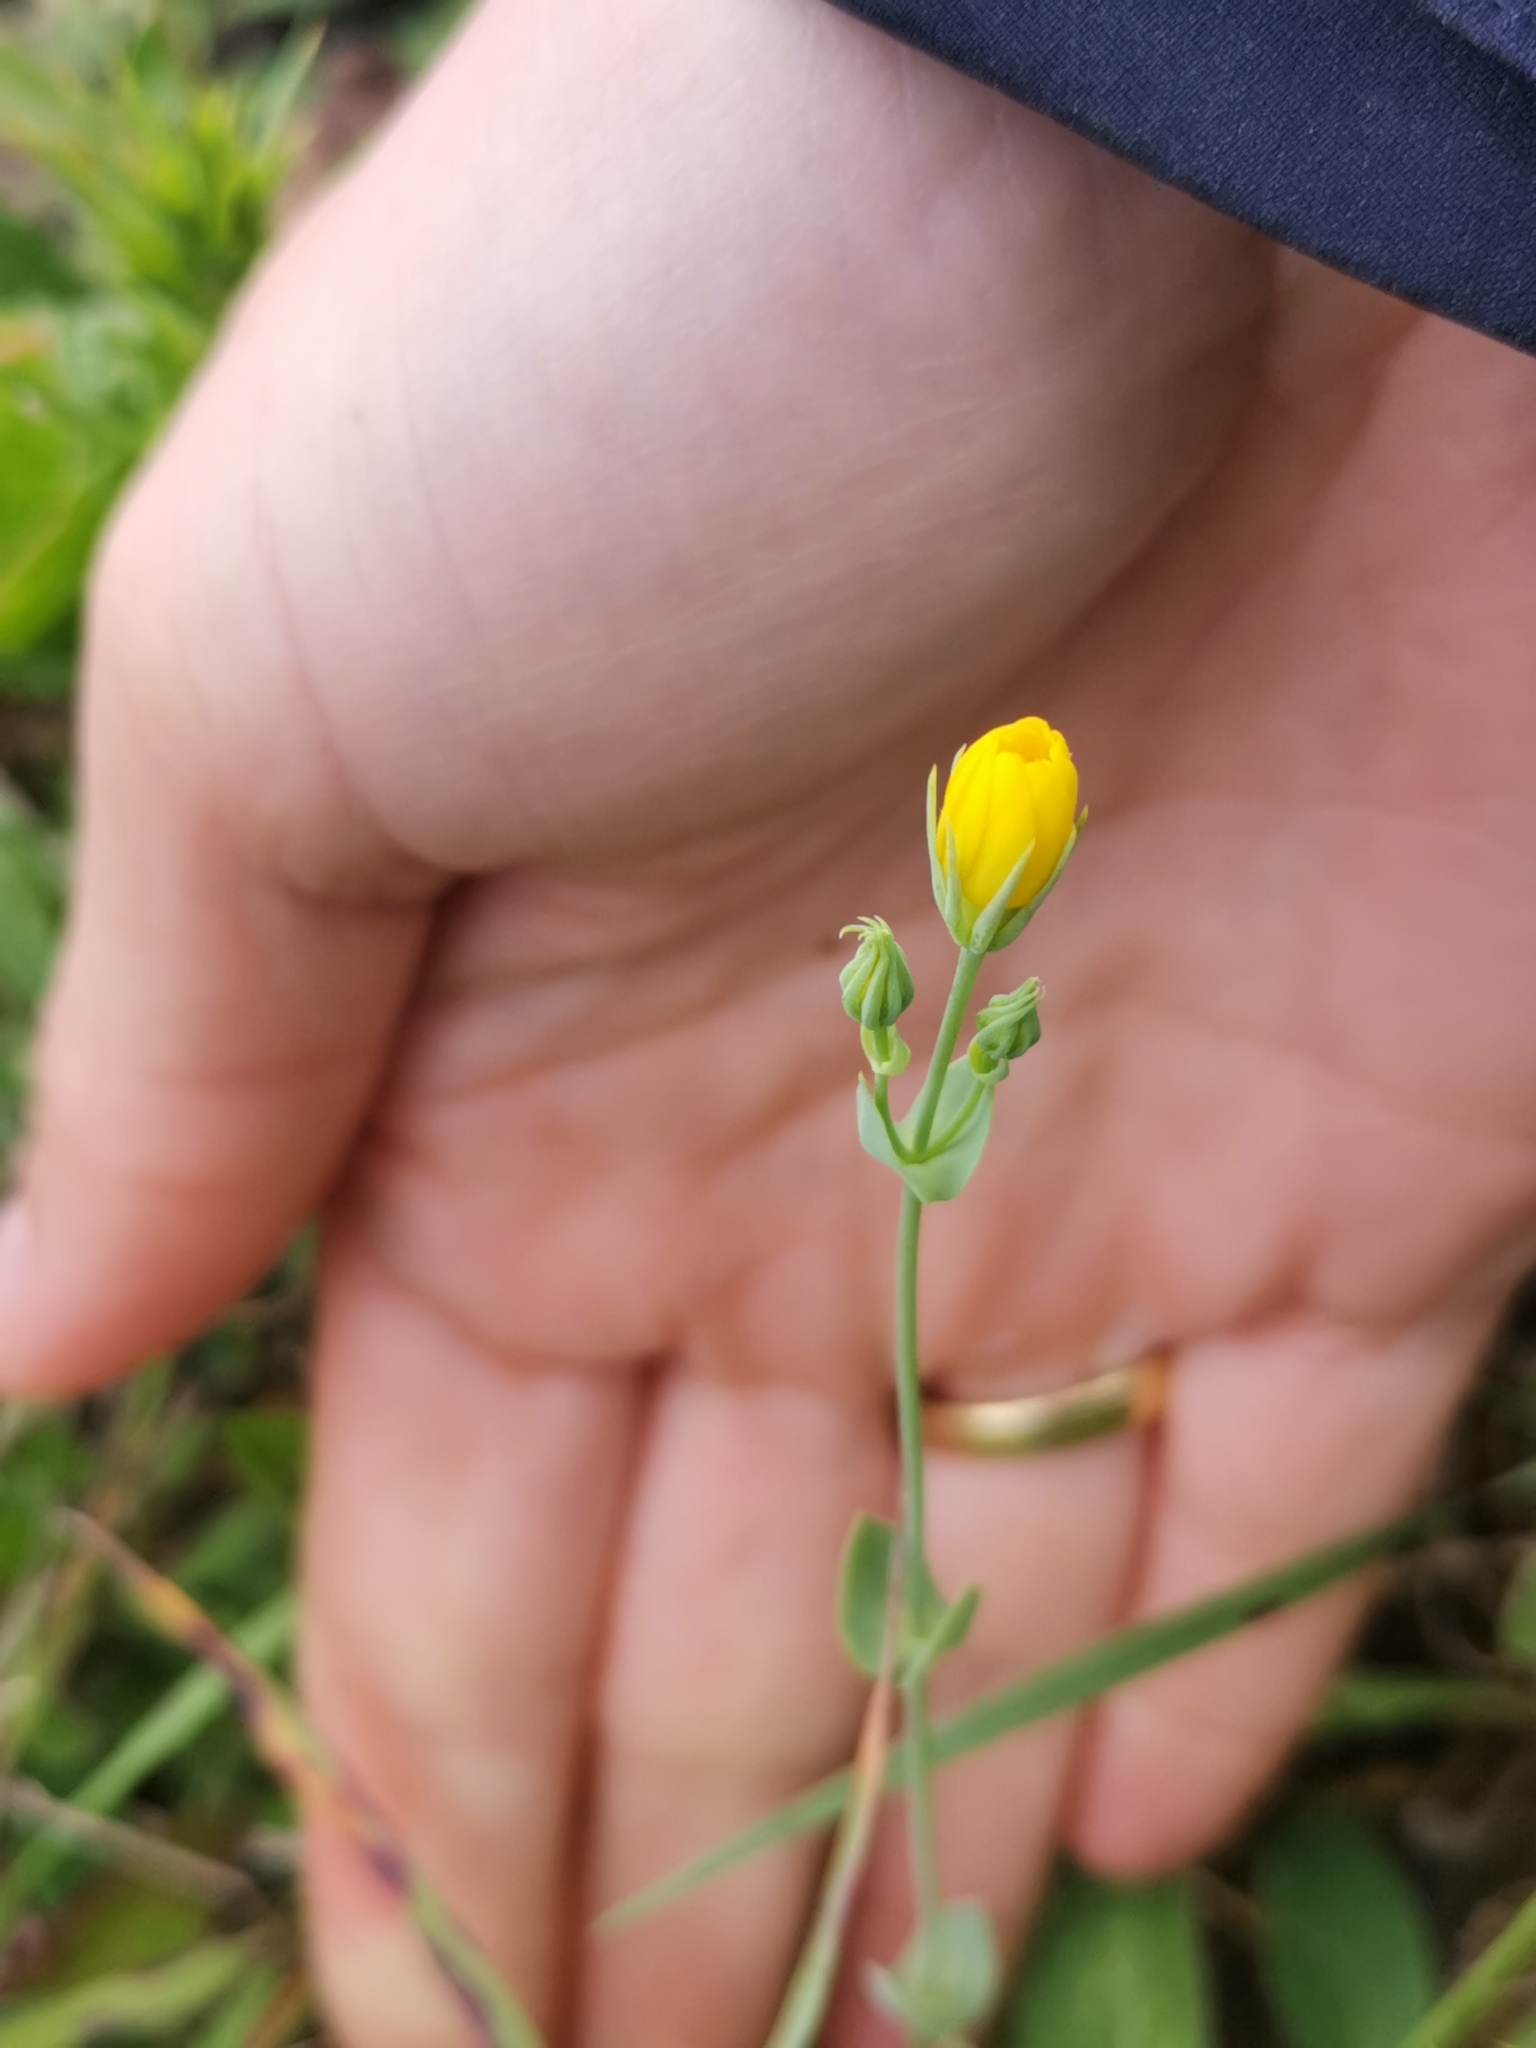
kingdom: Plantae
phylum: Tracheophyta
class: Magnoliopsida
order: Gentianales
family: Gentianaceae
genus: Blackstonia
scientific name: Blackstonia perfoliata
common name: Yellow-wort
